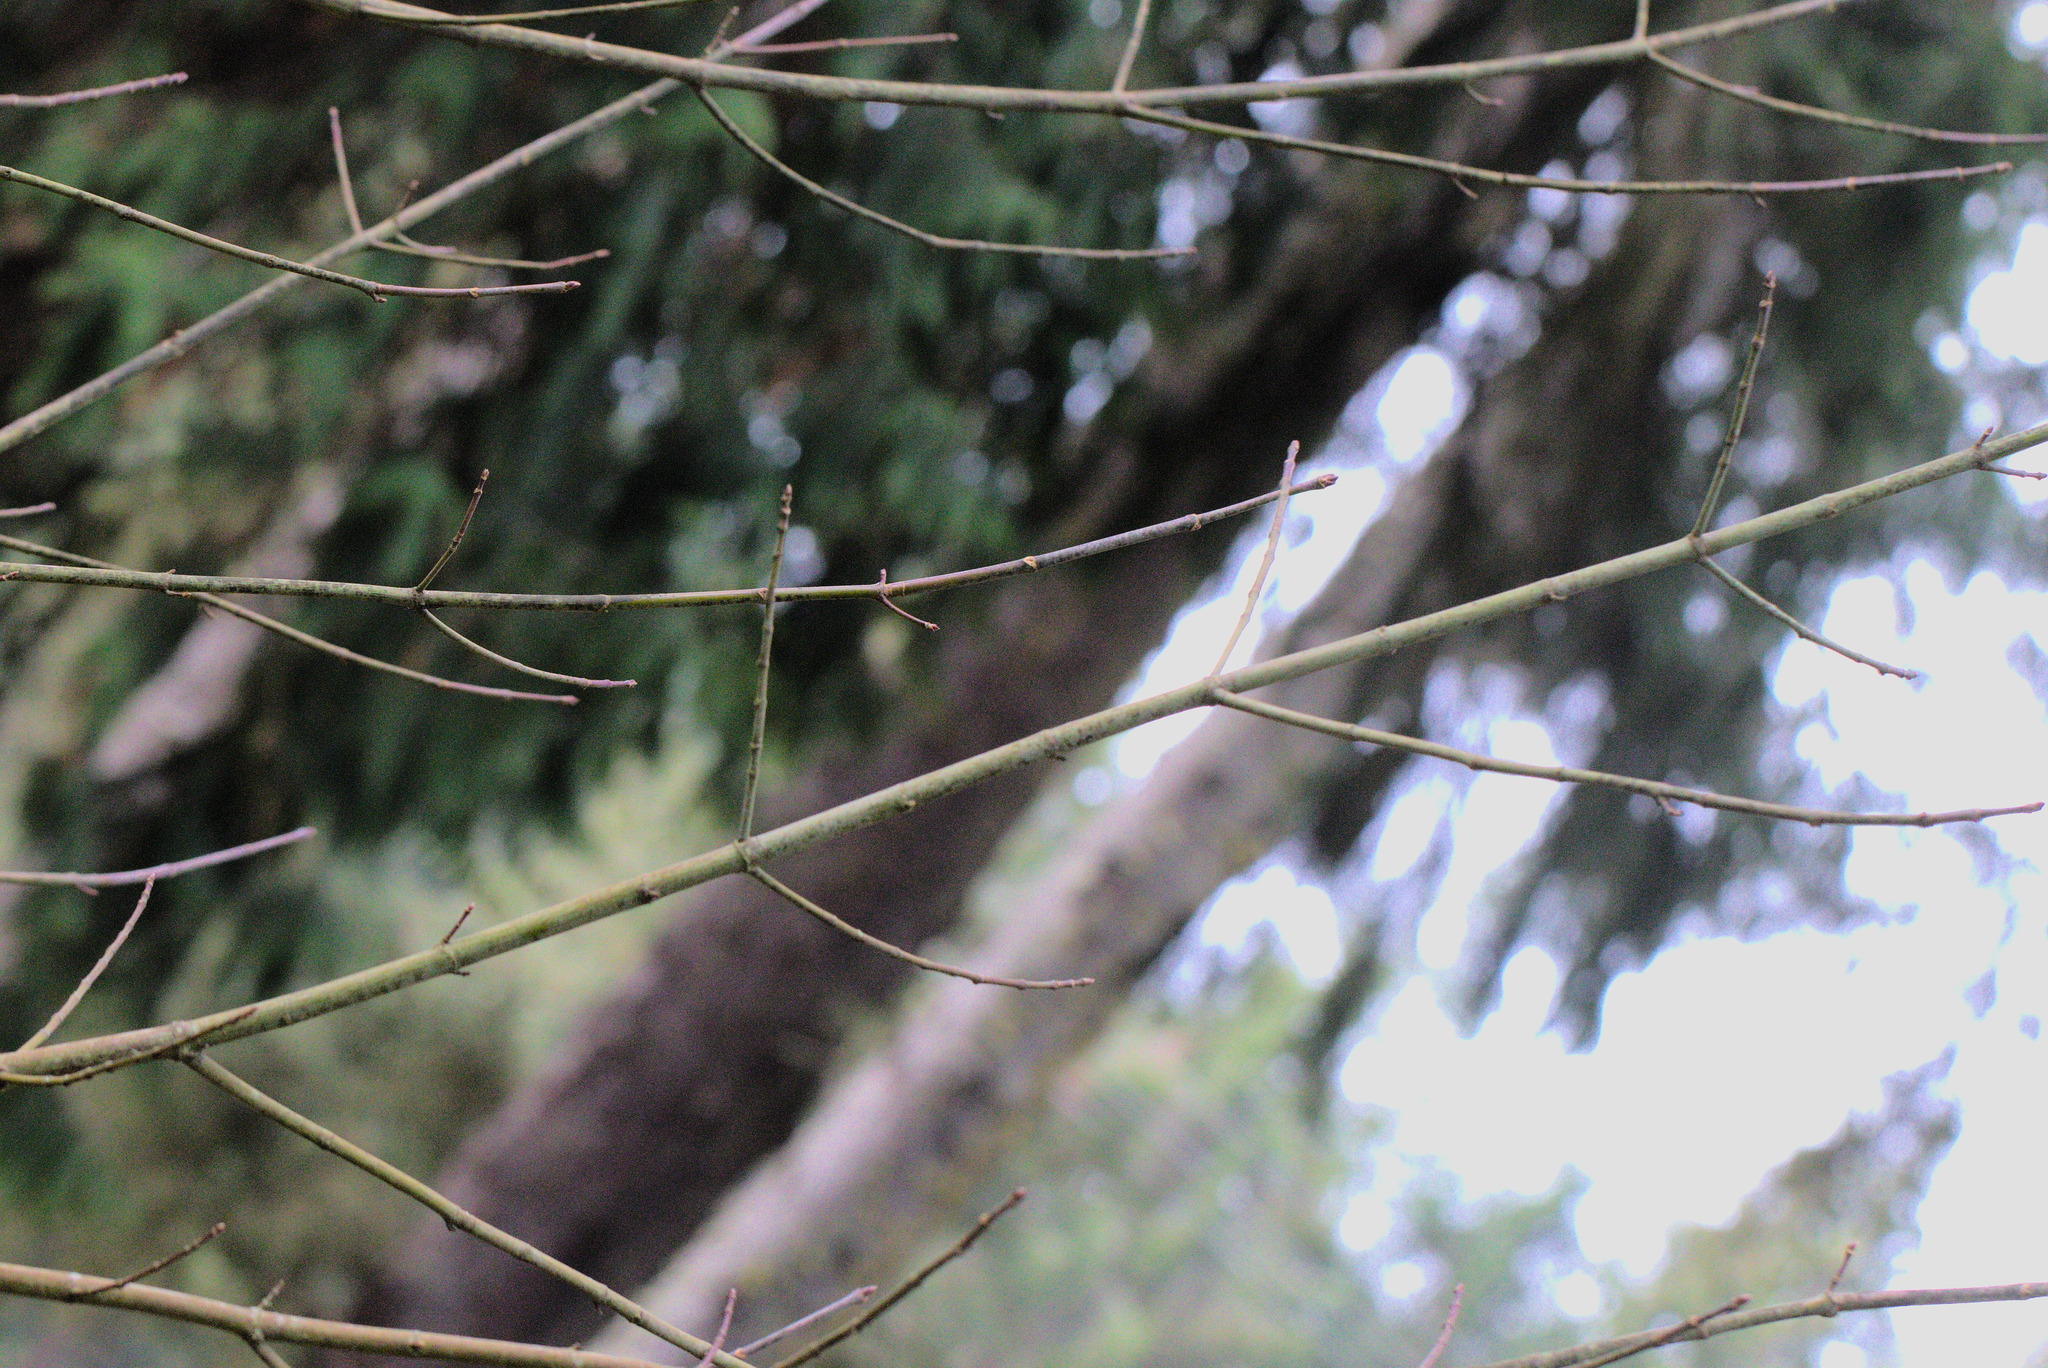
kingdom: Plantae
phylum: Tracheophyta
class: Magnoliopsida
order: Sapindales
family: Sapindaceae
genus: Acer
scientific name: Acer macrophyllum
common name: Oregon maple
